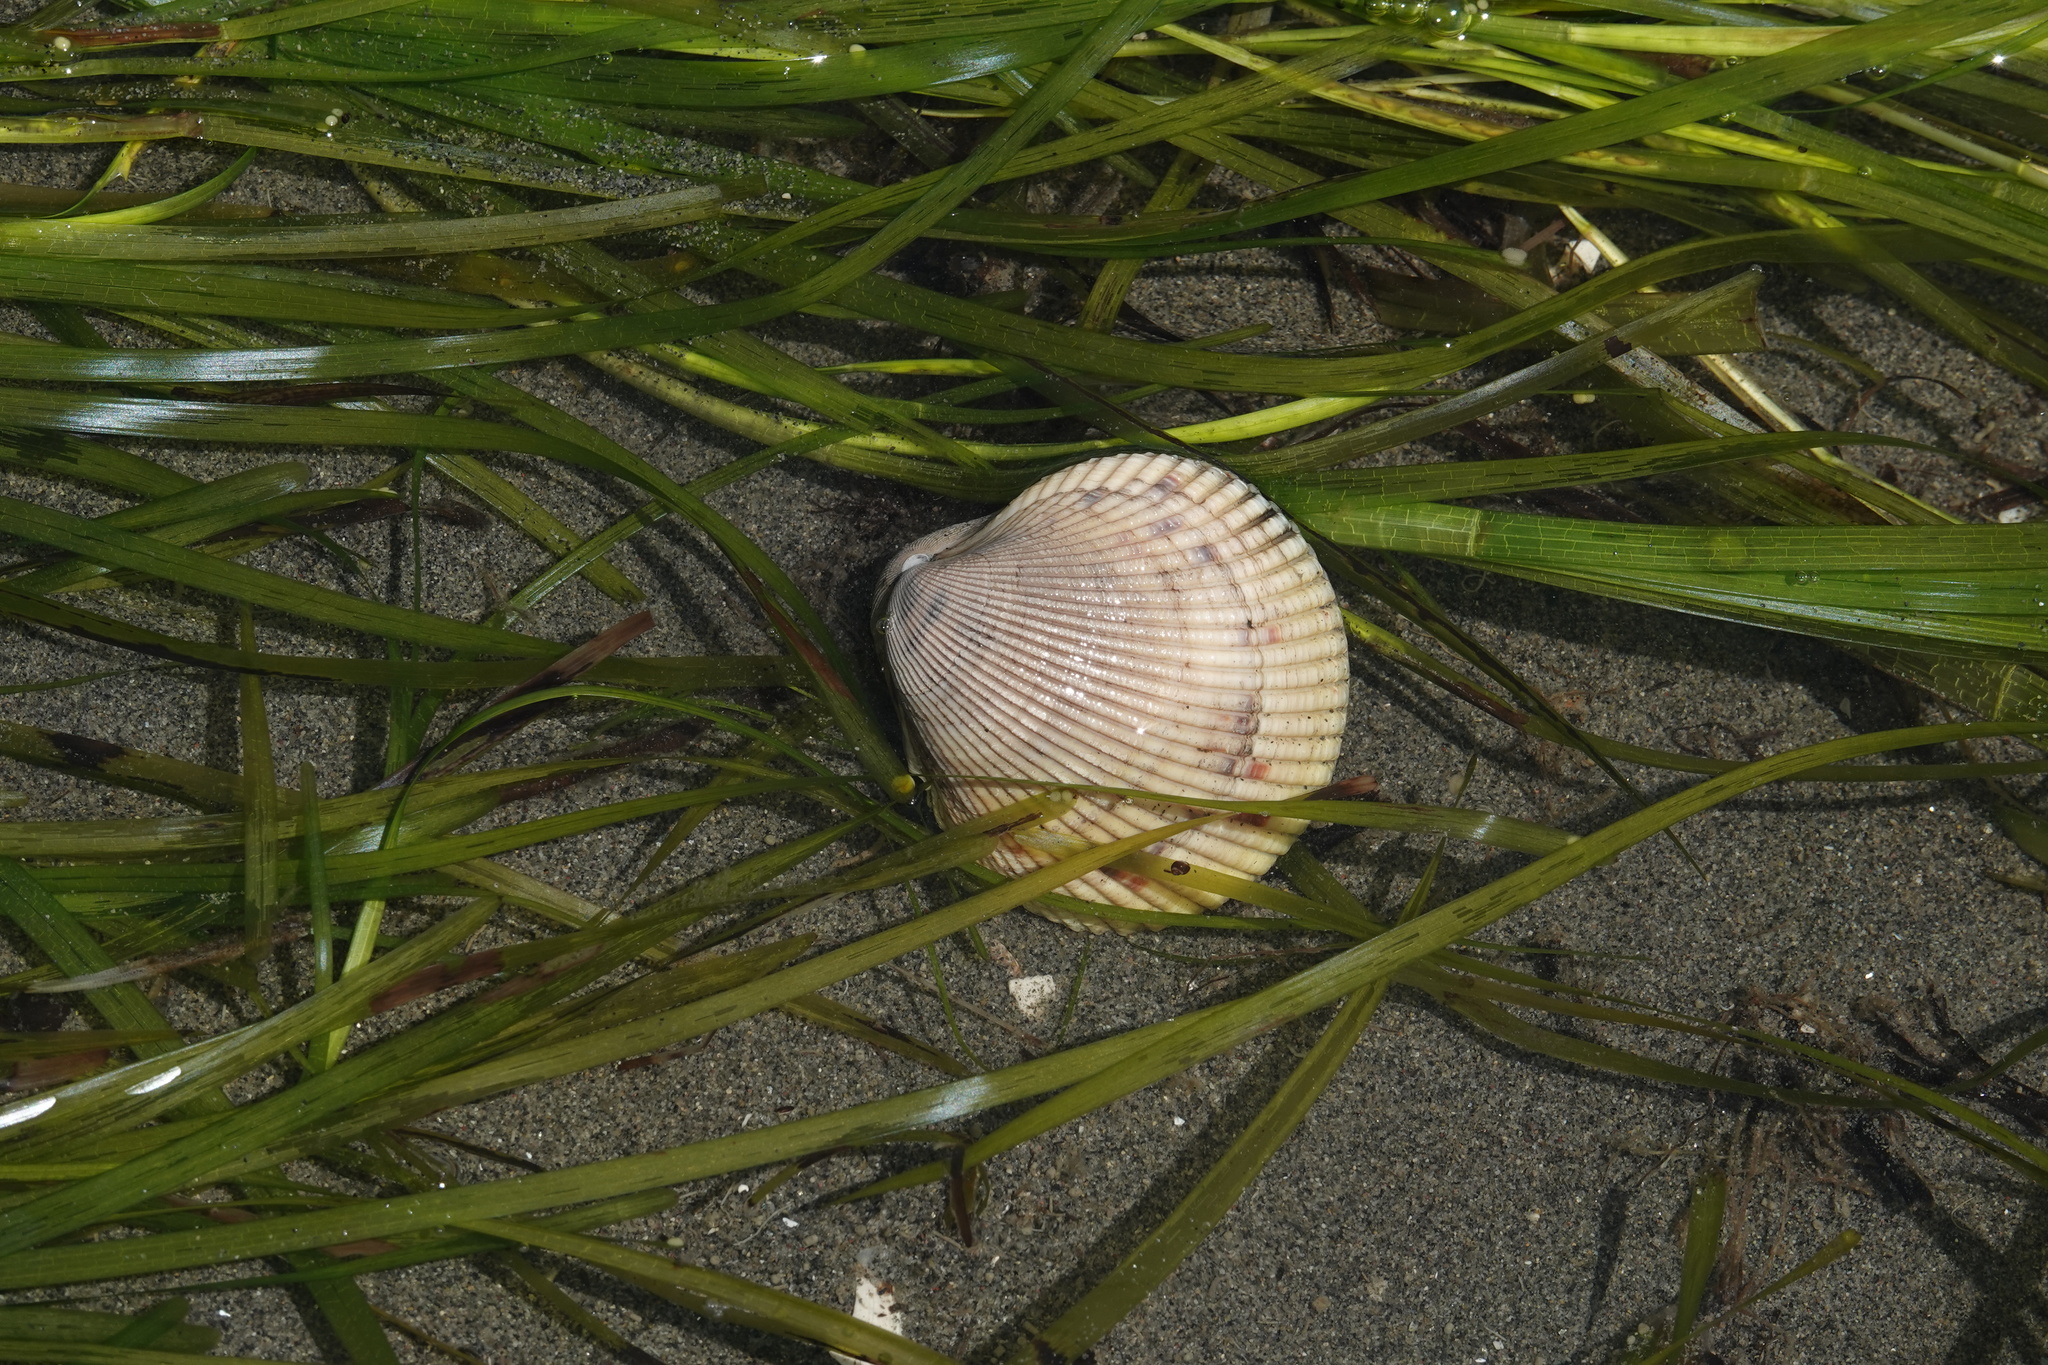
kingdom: Animalia
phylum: Mollusca
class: Bivalvia
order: Cardiida
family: Cardiidae
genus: Clinocardium
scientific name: Clinocardium nuttallii
